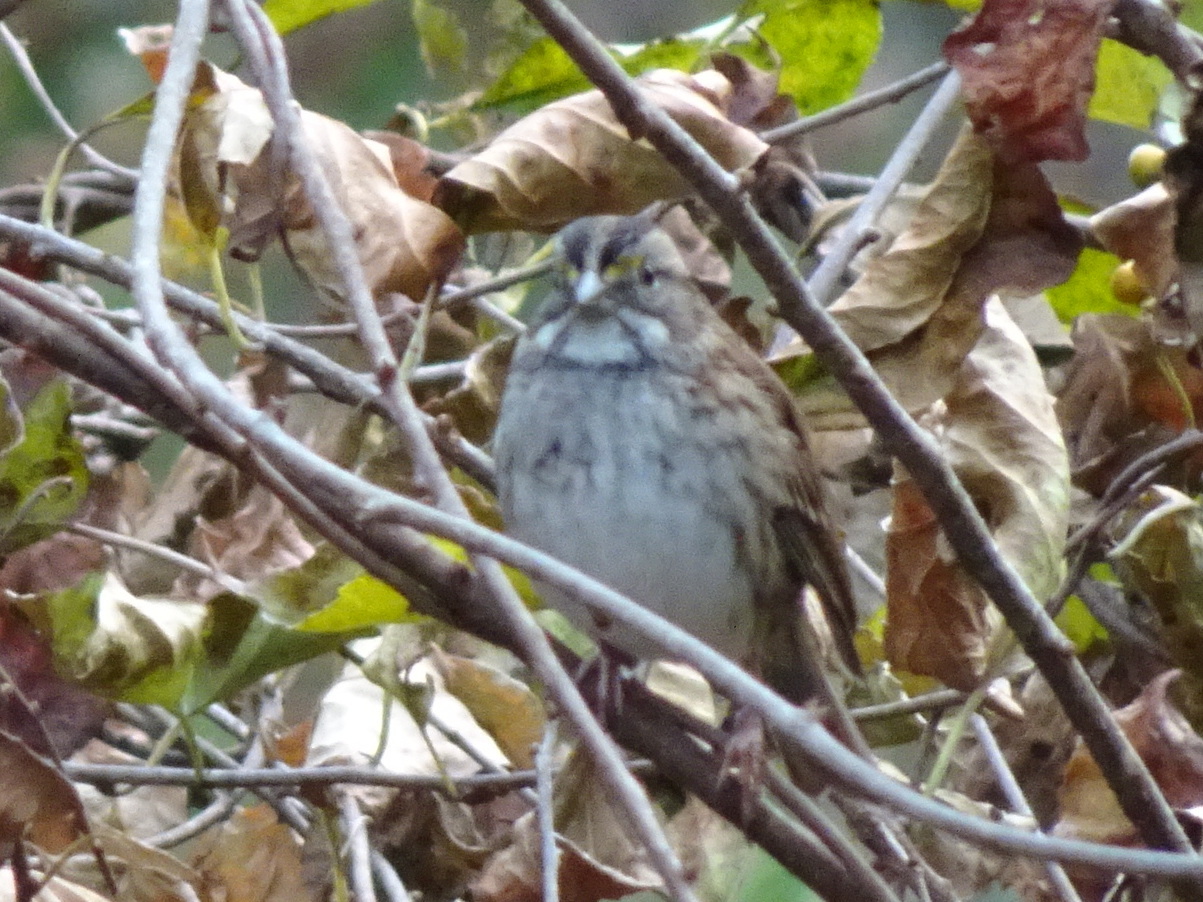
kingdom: Animalia
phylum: Chordata
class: Aves
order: Passeriformes
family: Passerellidae
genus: Zonotrichia
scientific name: Zonotrichia albicollis
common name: White-throated sparrow
